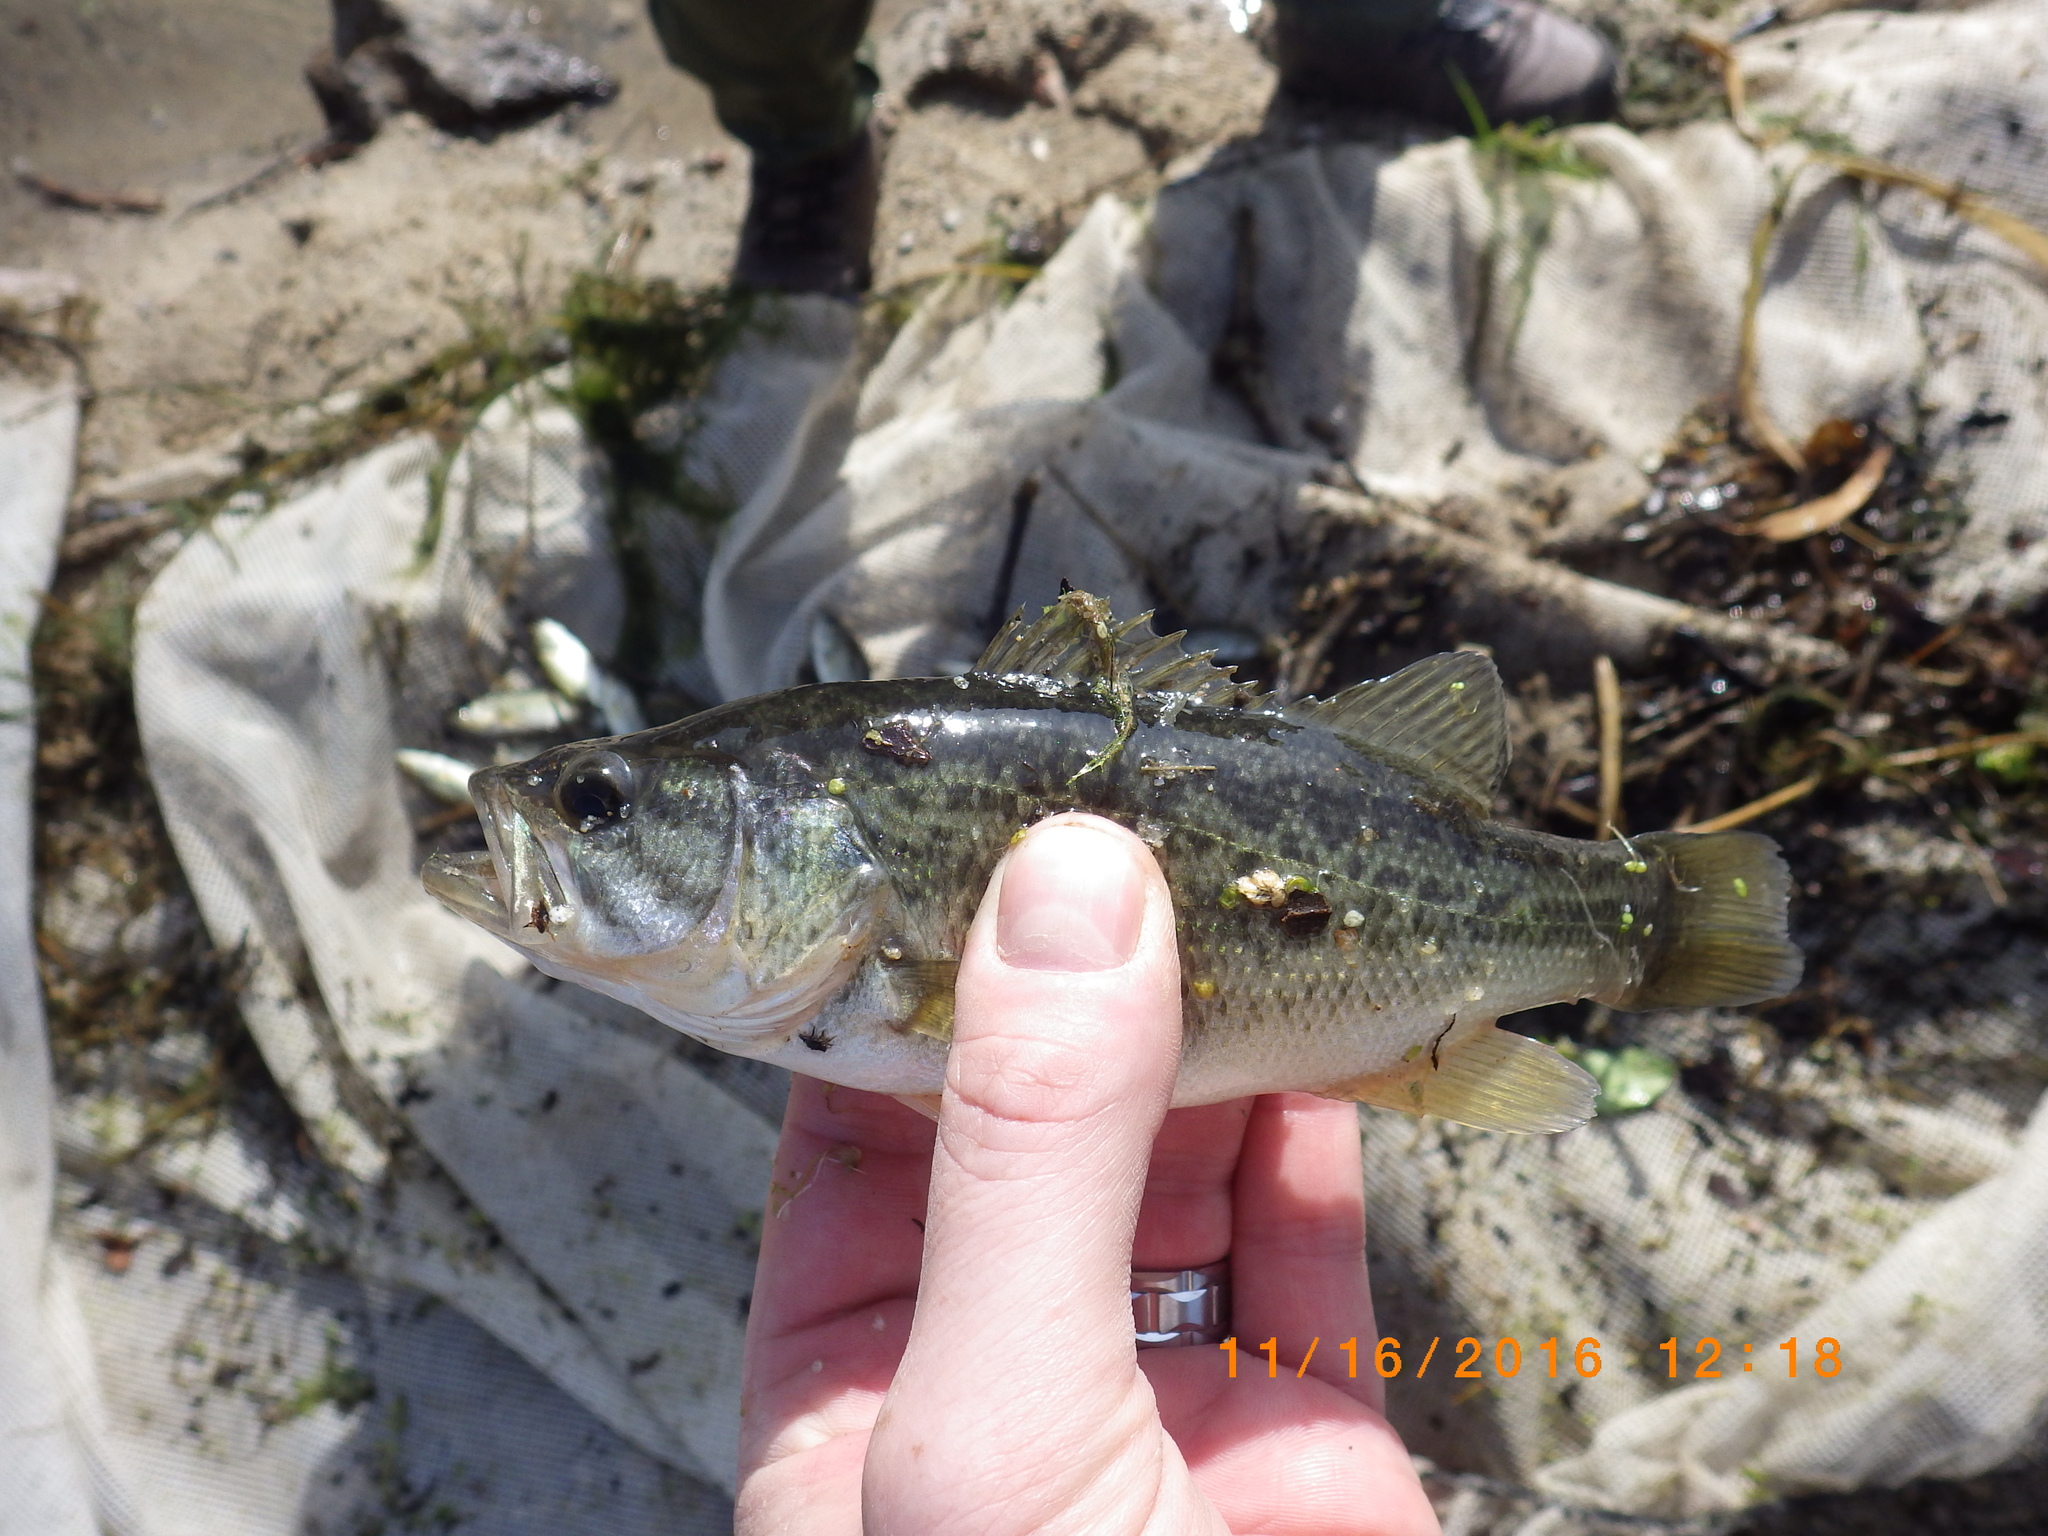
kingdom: Animalia
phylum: Chordata
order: Perciformes
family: Centrarchidae
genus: Micropterus
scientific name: Micropterus
